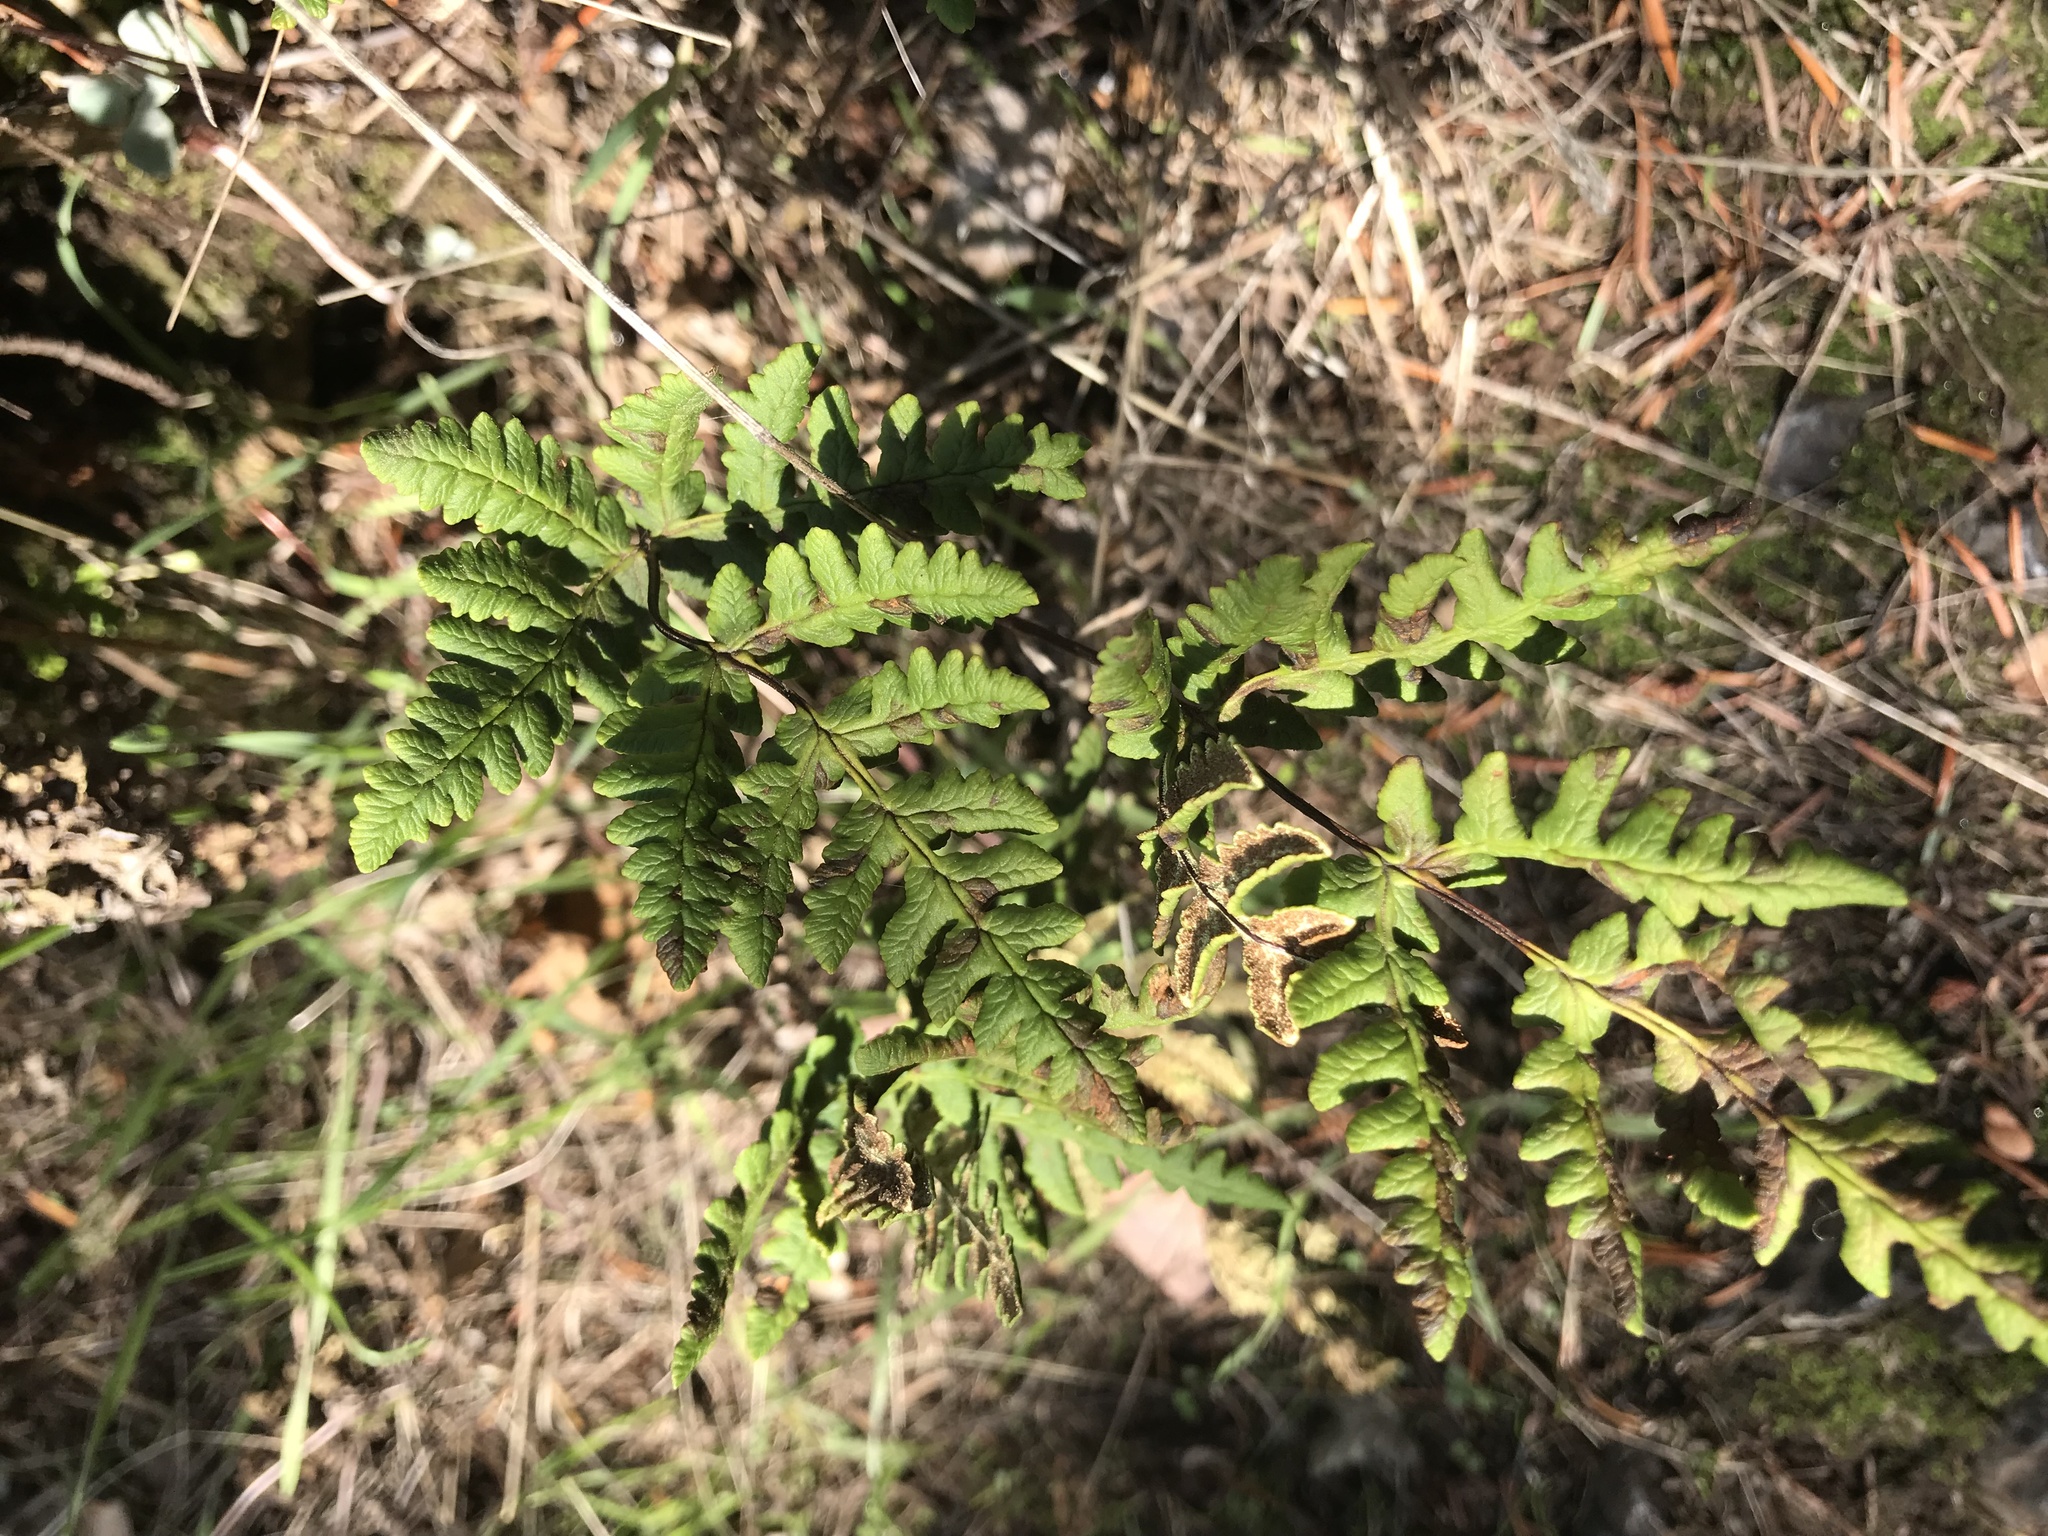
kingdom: Plantae
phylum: Tracheophyta
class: Polypodiopsida
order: Polypodiales
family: Pteridaceae
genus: Pentagramma
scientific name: Pentagramma triangularis
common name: Gold fern
